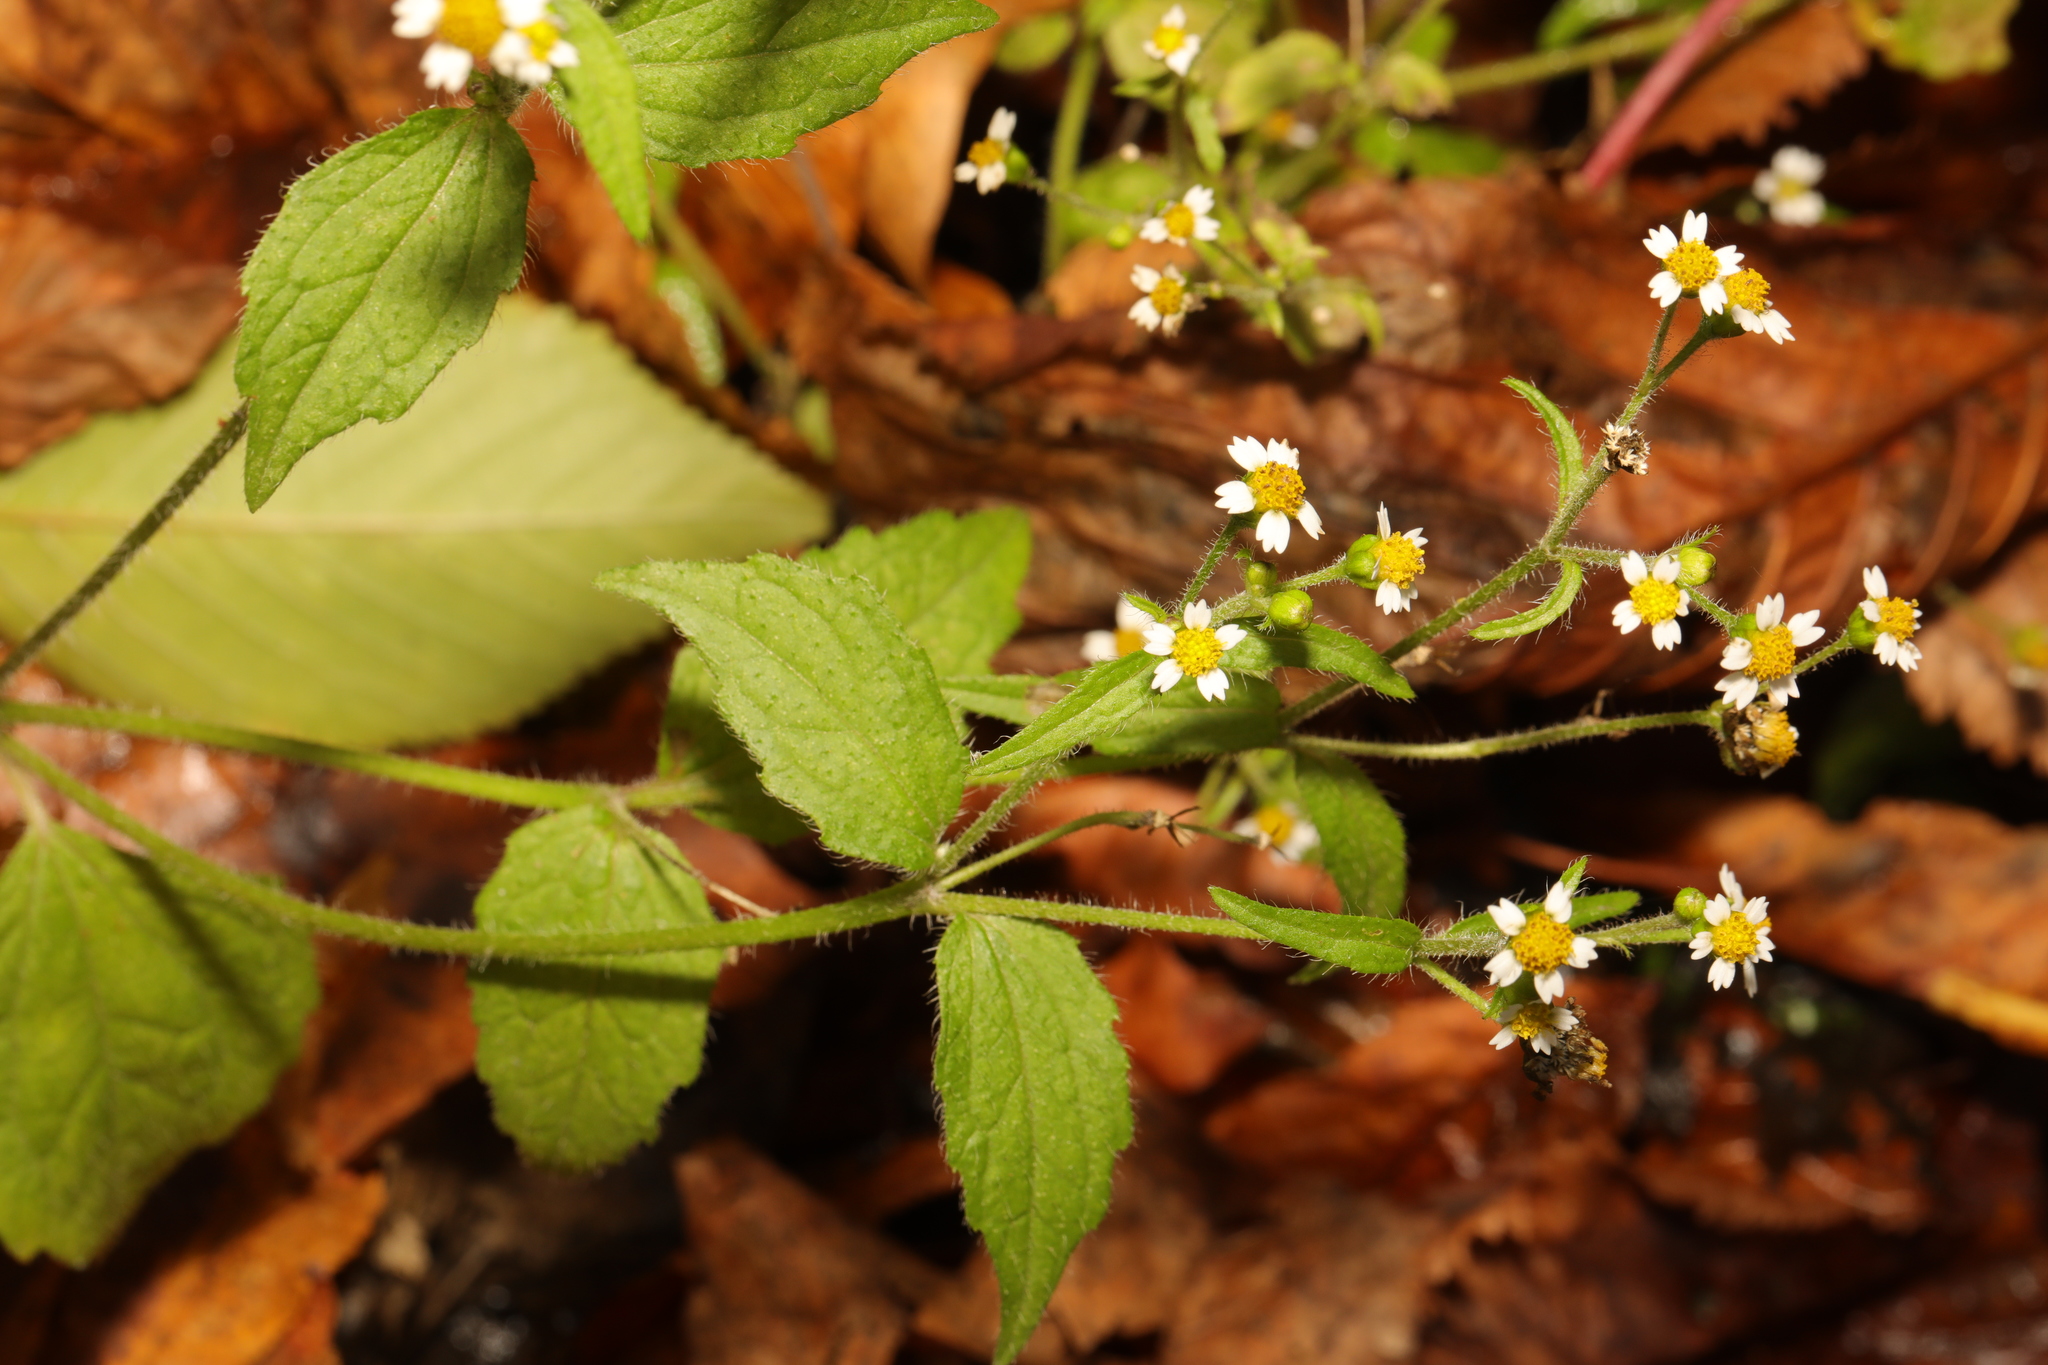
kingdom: Plantae
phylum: Tracheophyta
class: Magnoliopsida
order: Asterales
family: Asteraceae
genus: Galinsoga
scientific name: Galinsoga quadriradiata
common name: Shaggy soldier
